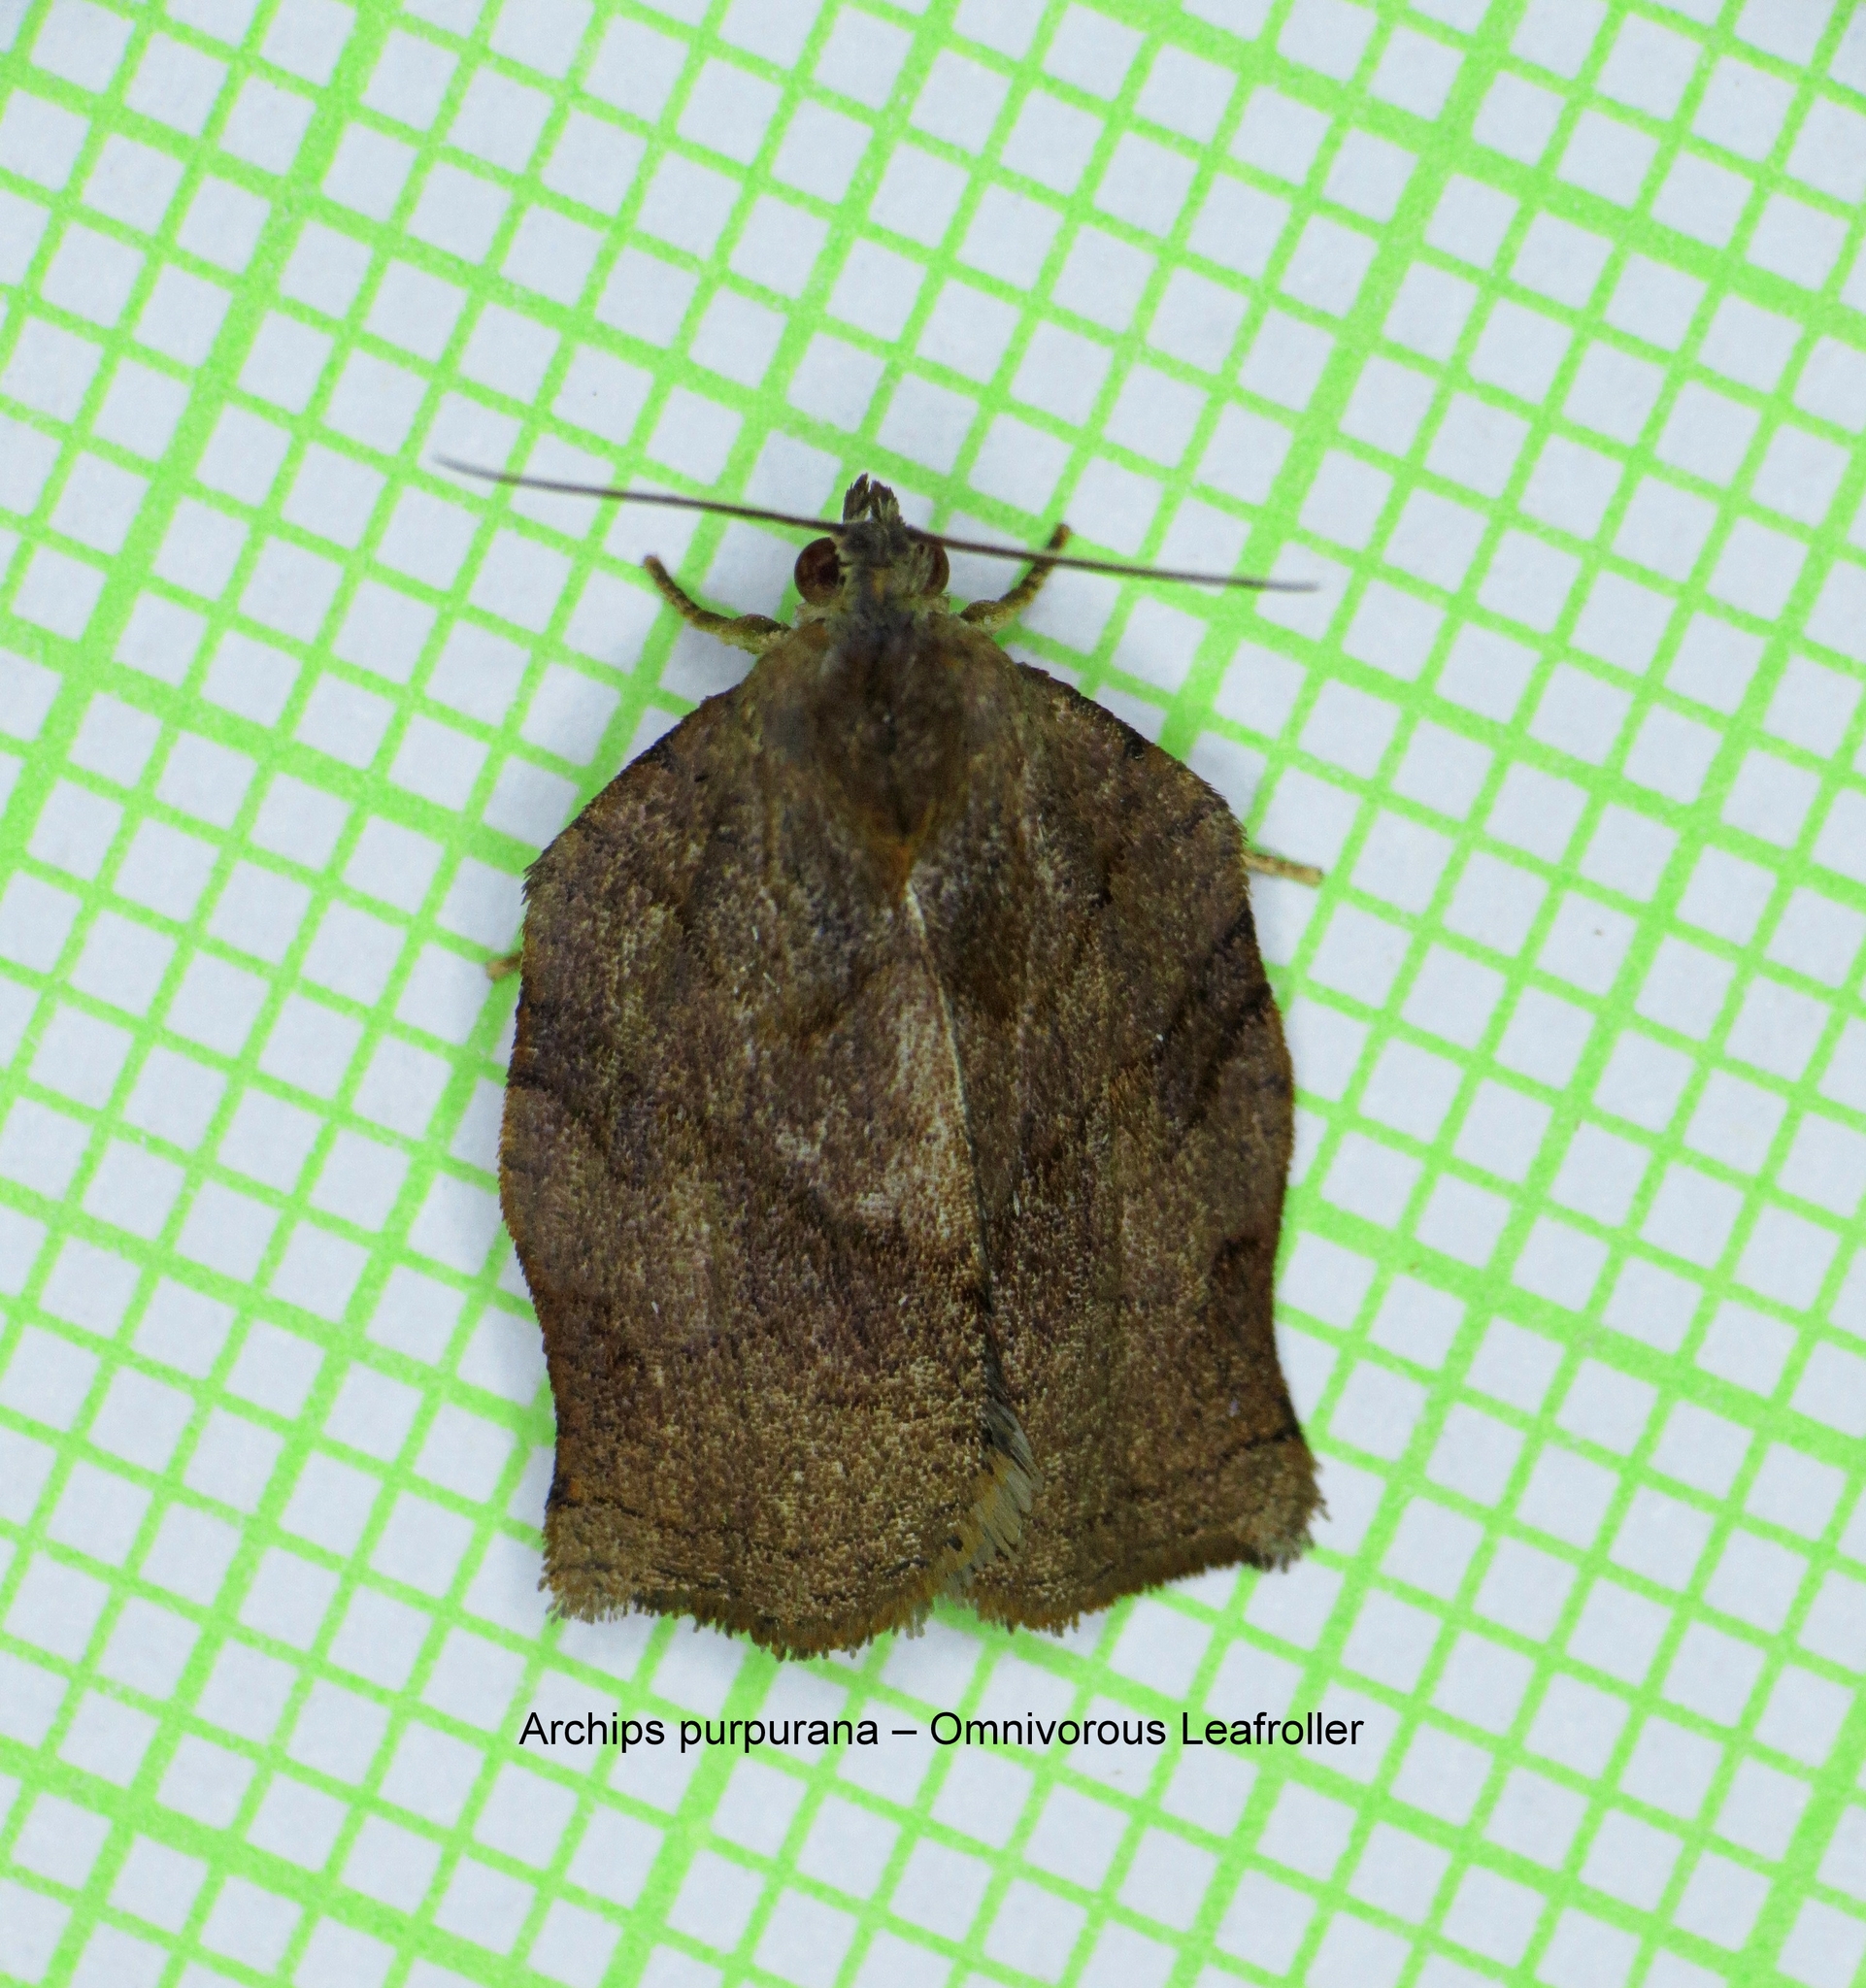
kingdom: Animalia
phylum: Arthropoda
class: Insecta
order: Lepidoptera
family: Tortricidae
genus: Archips
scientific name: Archips purpurana
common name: Omnivorous leafroller
